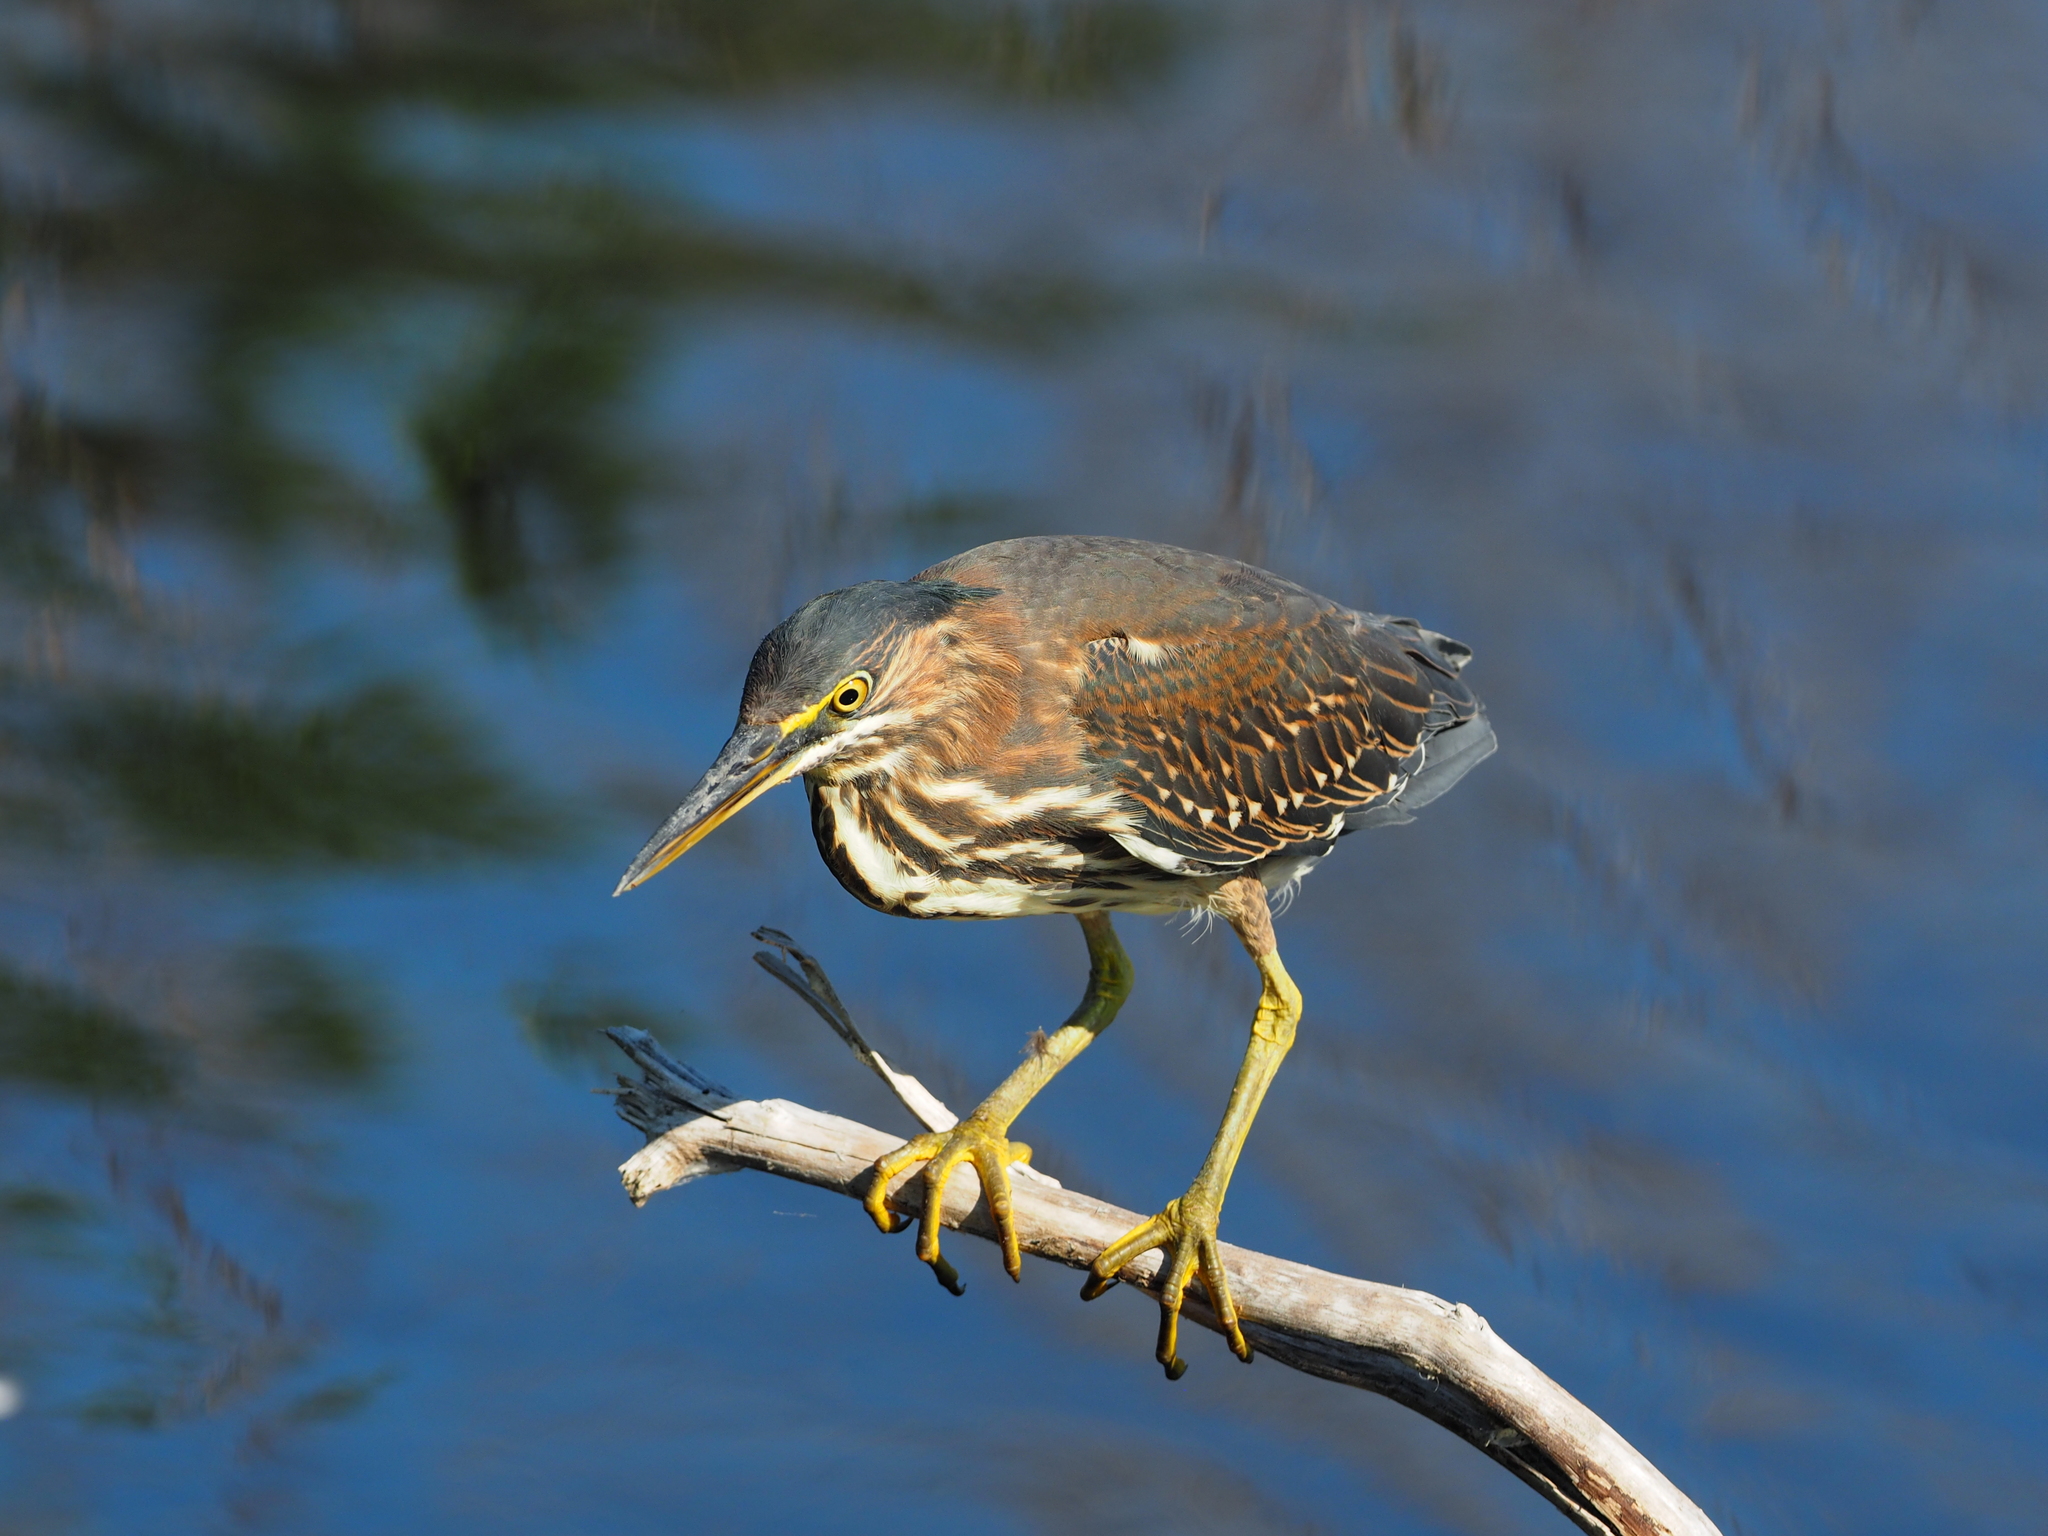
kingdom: Animalia
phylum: Chordata
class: Aves
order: Pelecaniformes
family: Ardeidae
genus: Butorides
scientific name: Butorides virescens
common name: Green heron
